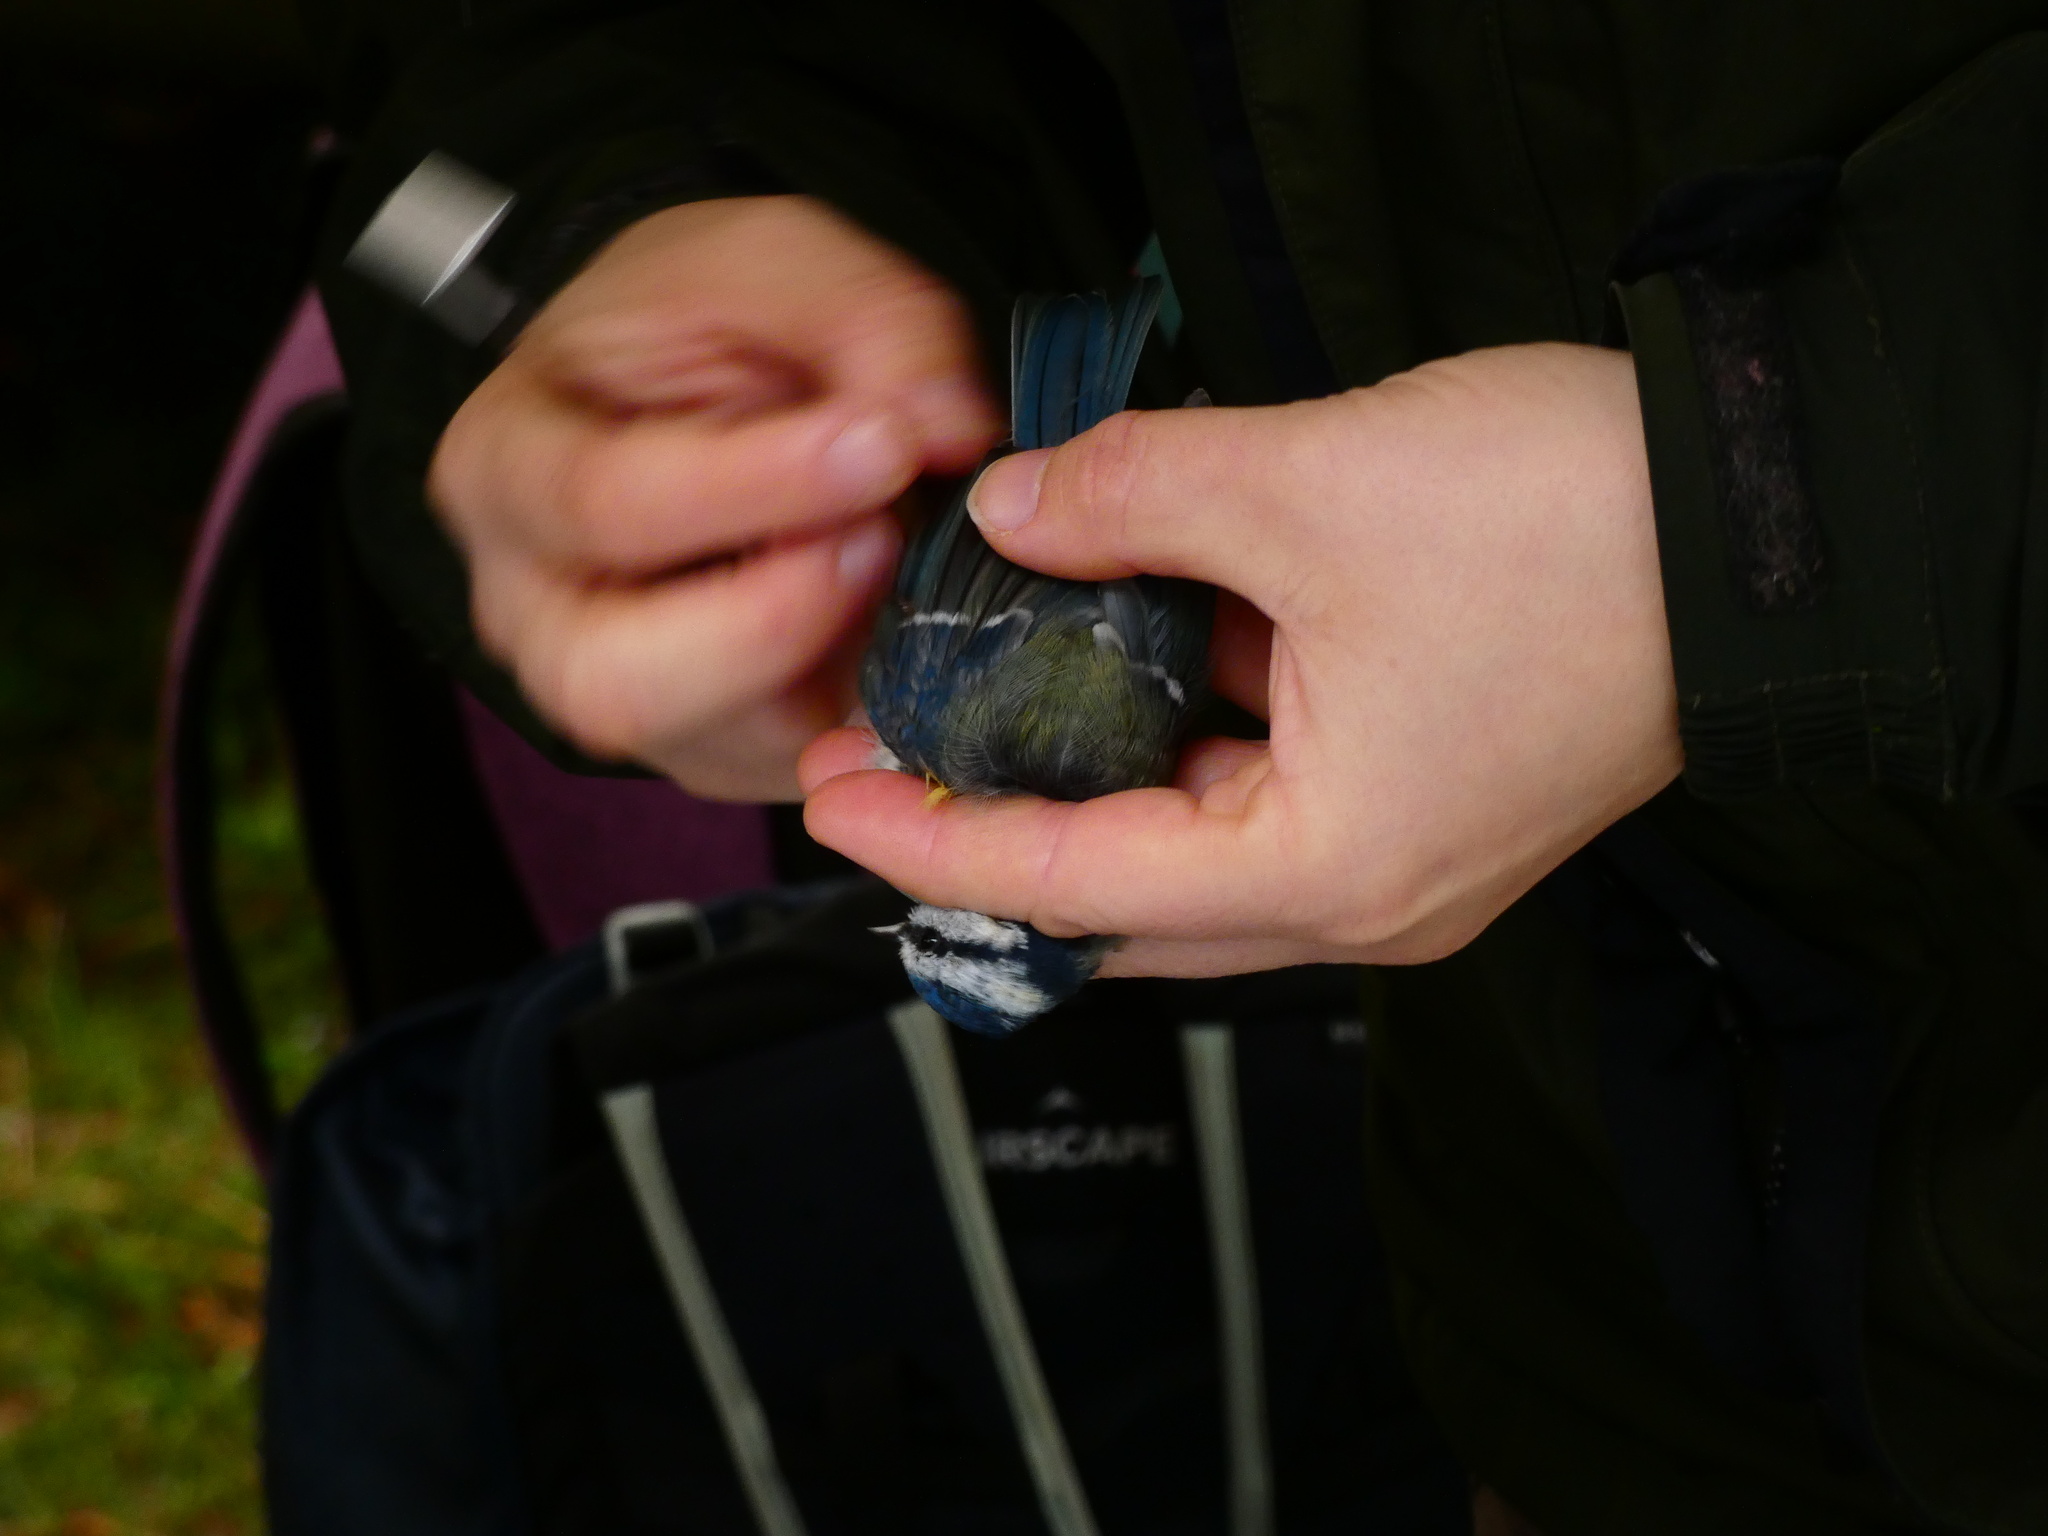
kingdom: Animalia
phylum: Chordata
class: Aves
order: Passeriformes
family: Paridae
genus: Cyanistes
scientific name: Cyanistes caeruleus
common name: Eurasian blue tit
